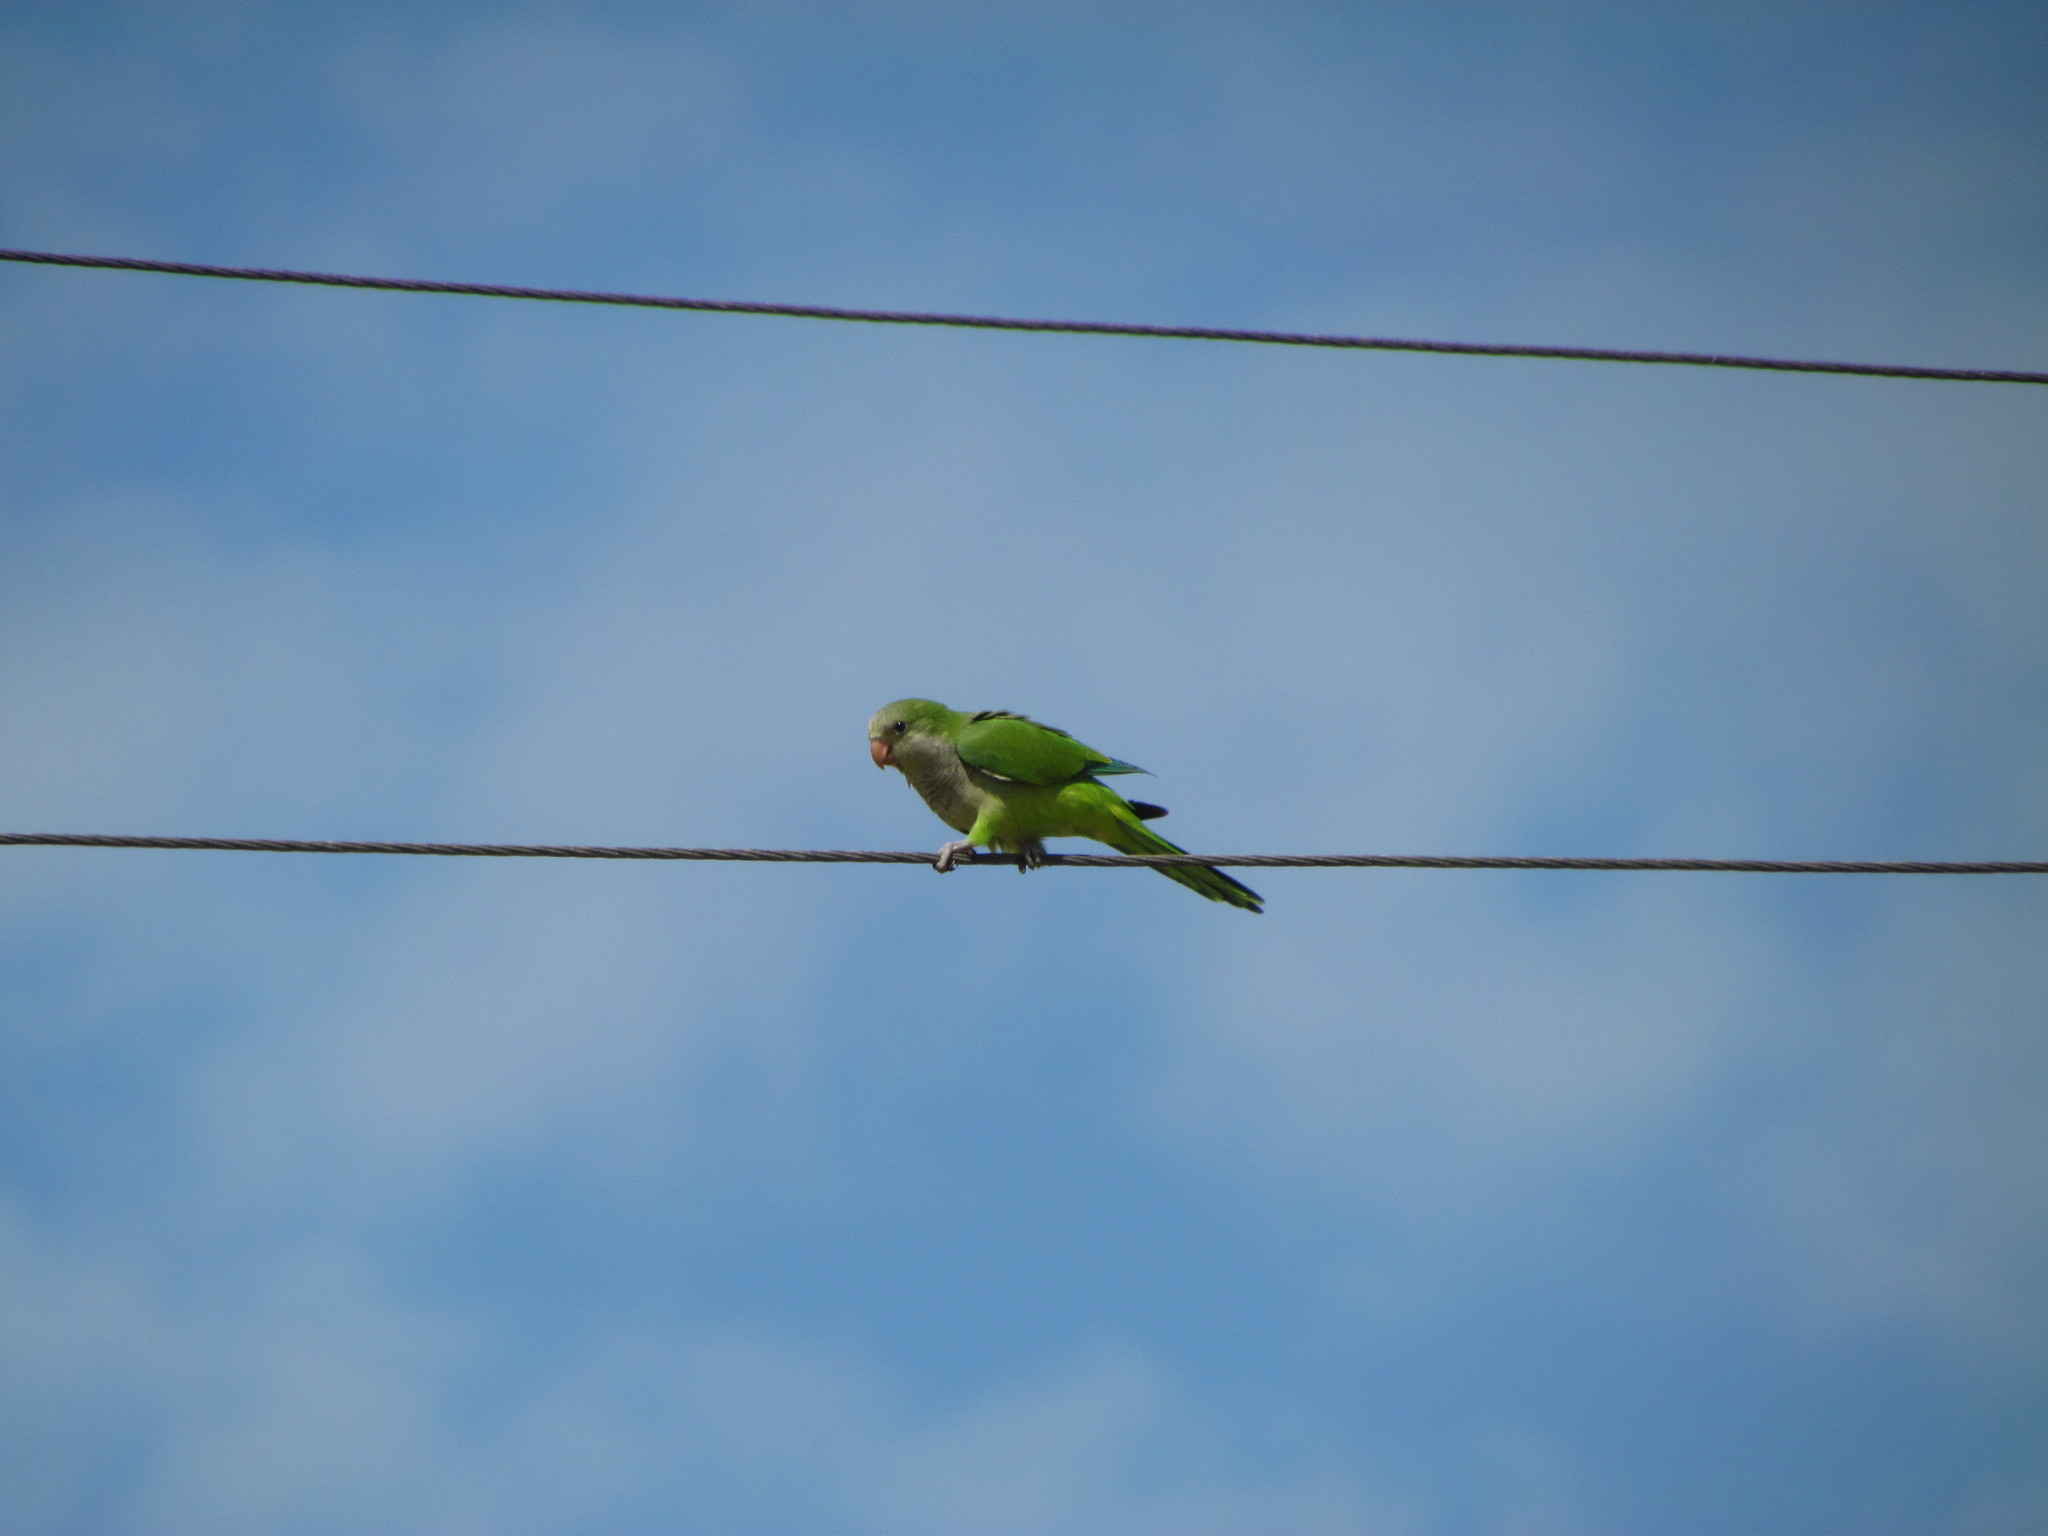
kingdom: Animalia
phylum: Chordata
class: Aves
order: Psittaciformes
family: Psittacidae
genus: Myiopsitta
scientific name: Myiopsitta monachus
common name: Monk parakeet
